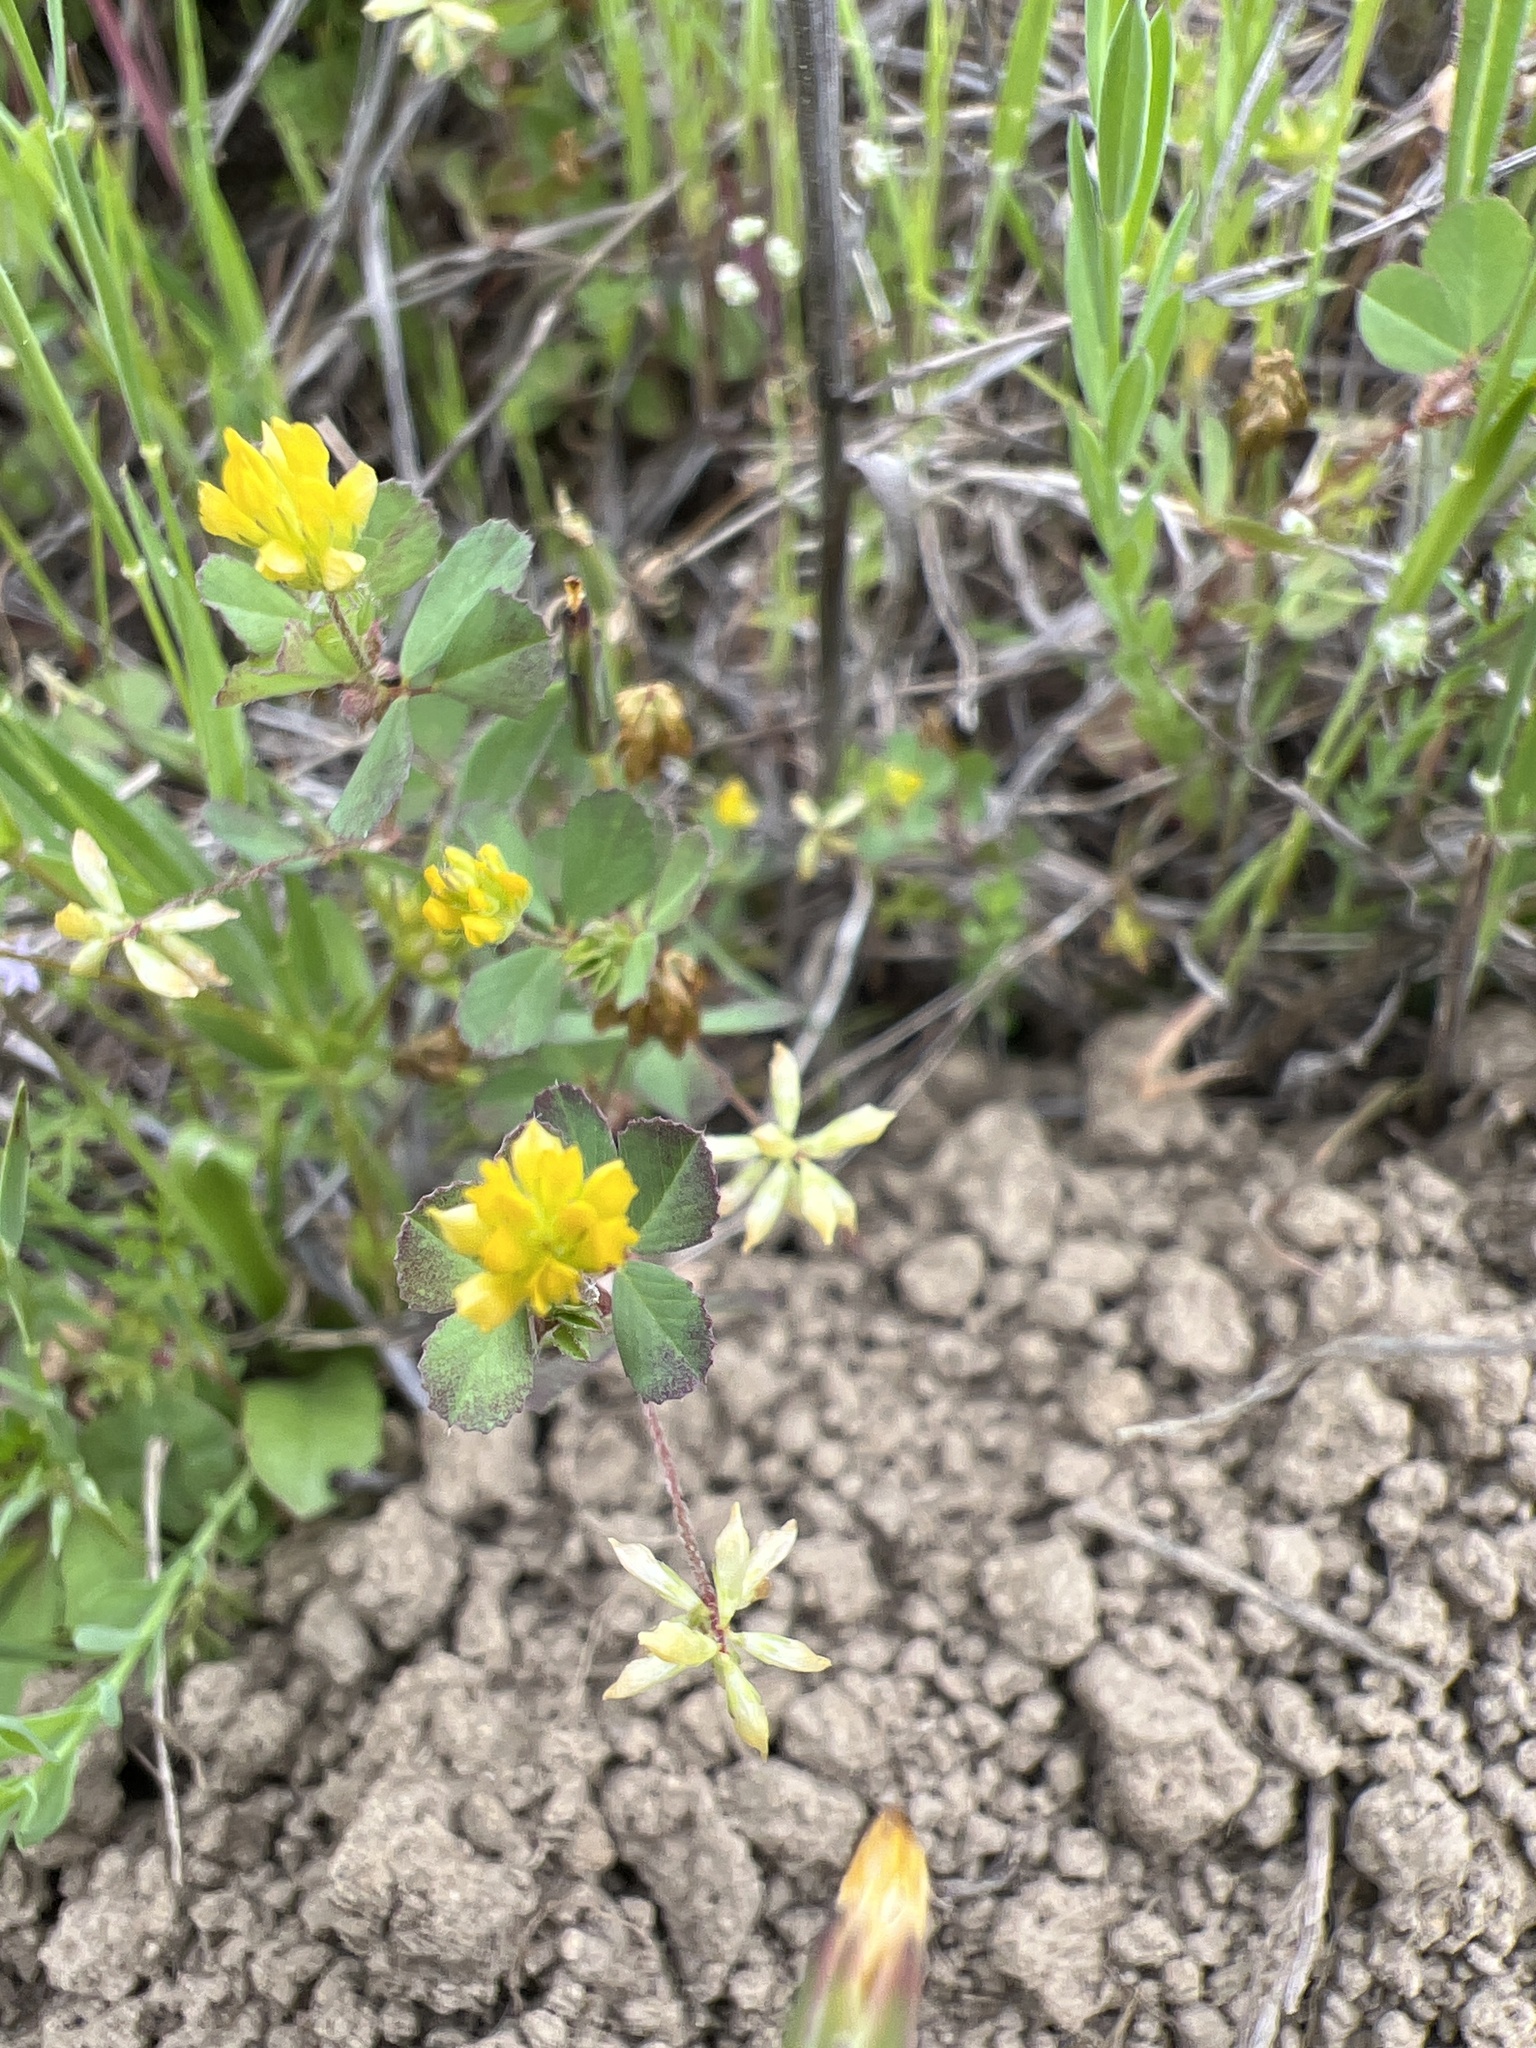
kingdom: Plantae
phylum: Tracheophyta
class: Magnoliopsida
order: Fabales
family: Fabaceae
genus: Trifolium
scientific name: Trifolium dubium
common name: Suckling clover
